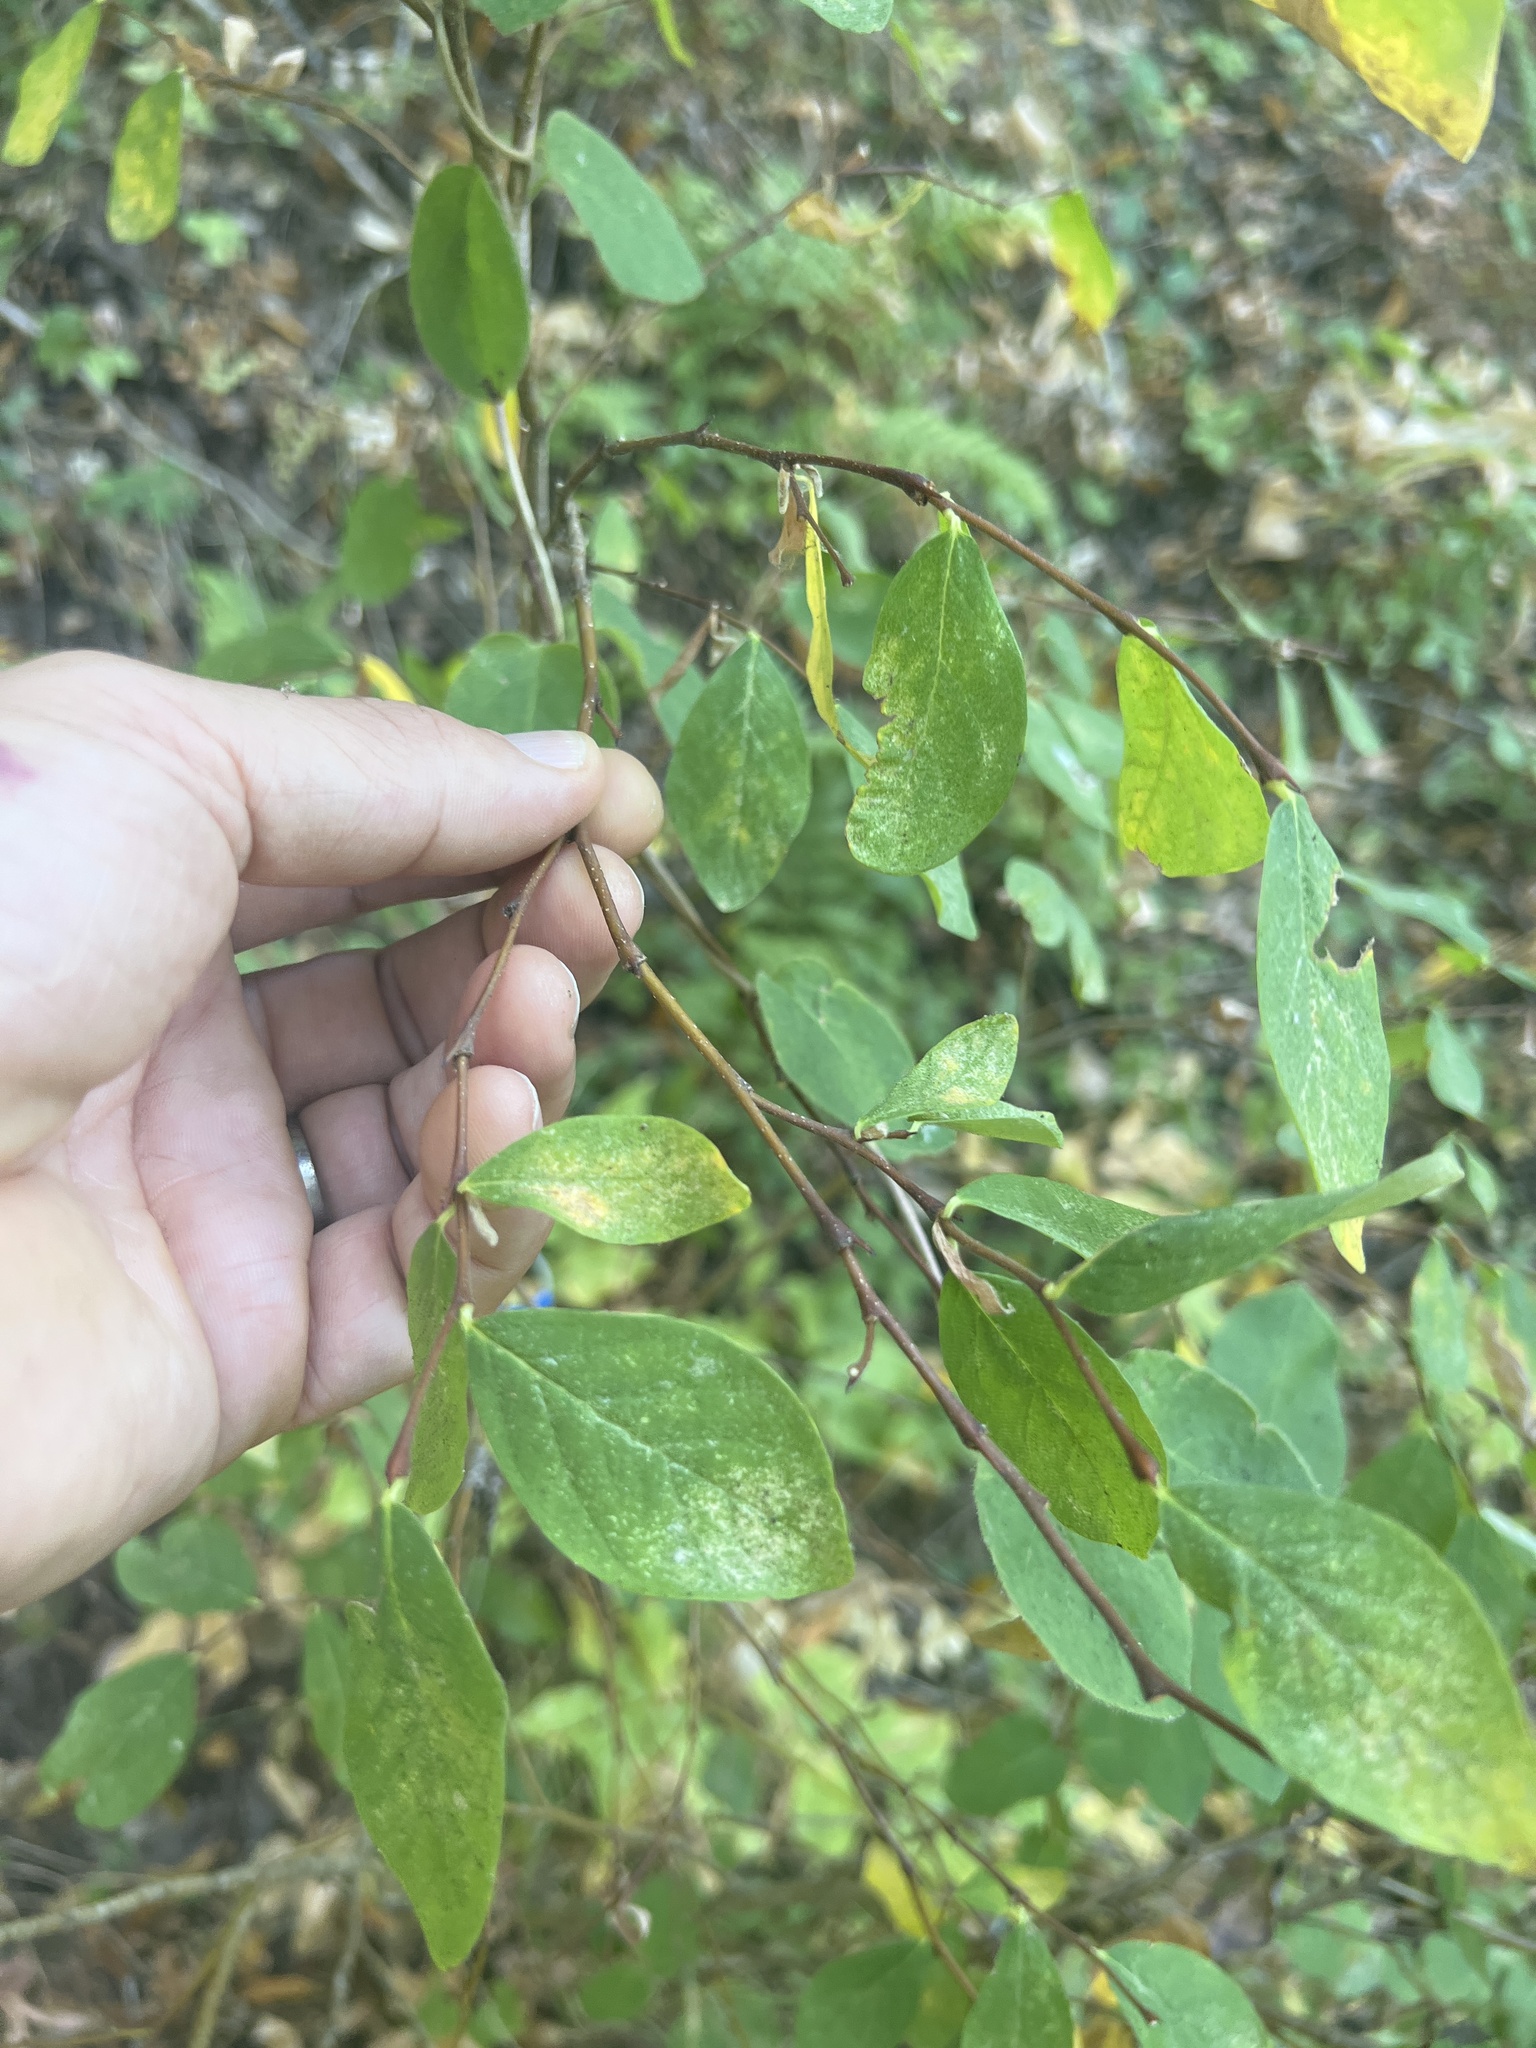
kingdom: Plantae
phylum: Tracheophyta
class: Magnoliopsida
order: Malvales
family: Thymelaeaceae
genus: Dirca
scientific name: Dirca occidentalis
